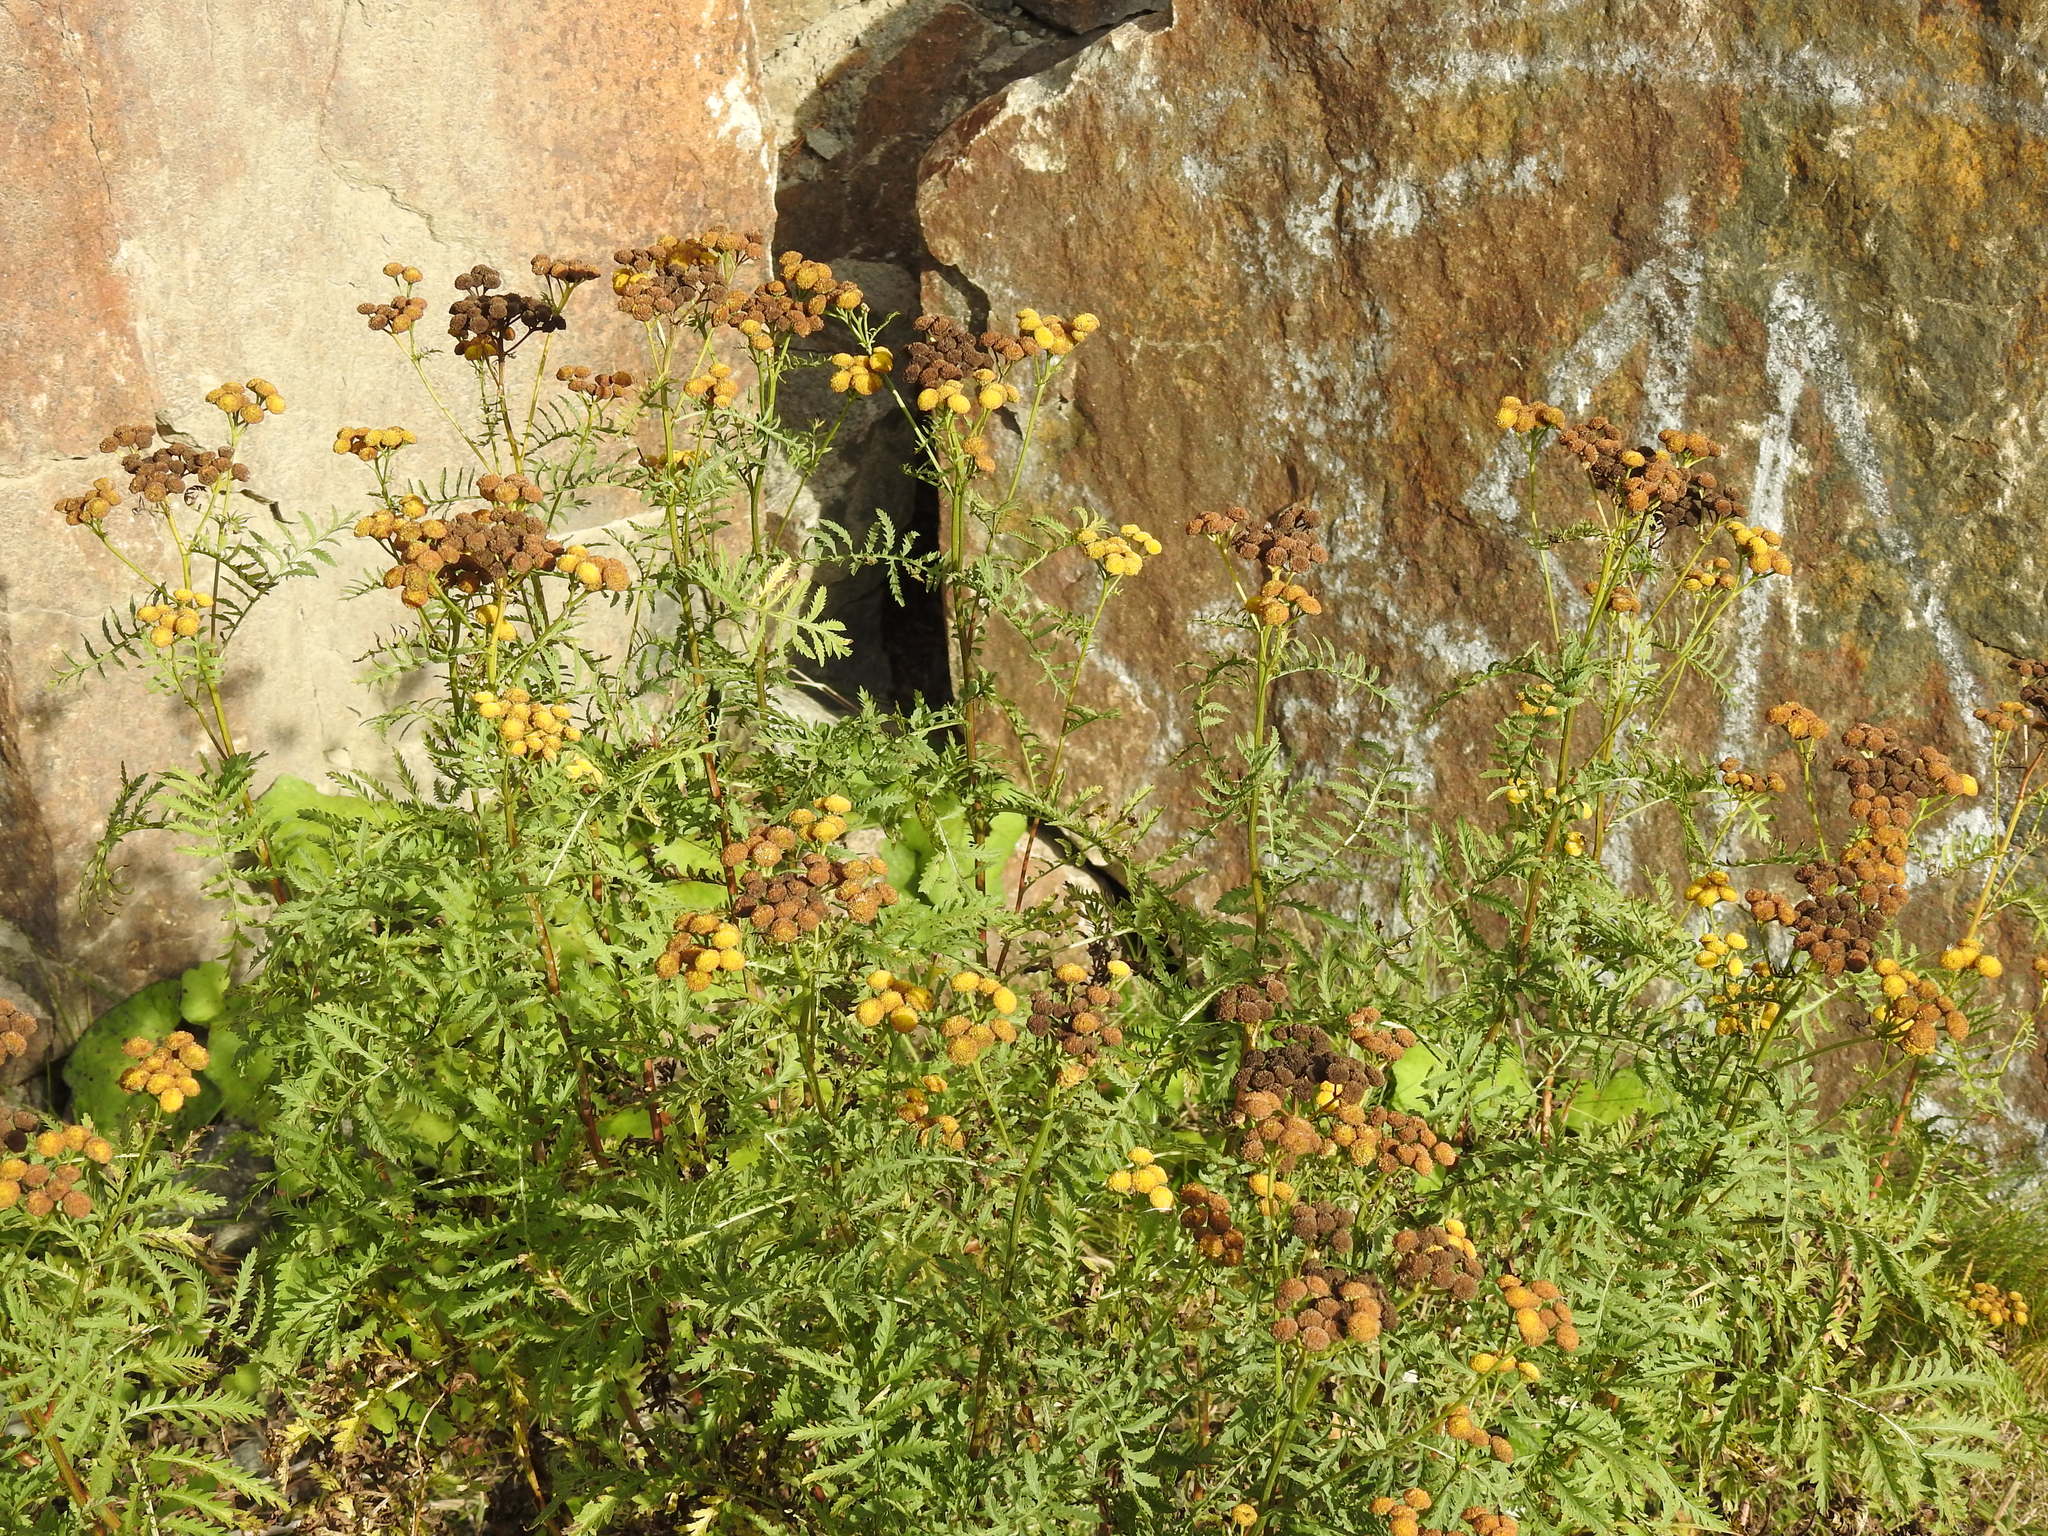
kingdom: Plantae
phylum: Tracheophyta
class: Magnoliopsida
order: Asterales
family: Asteraceae
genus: Tanacetum
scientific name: Tanacetum vulgare
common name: Common tansy
